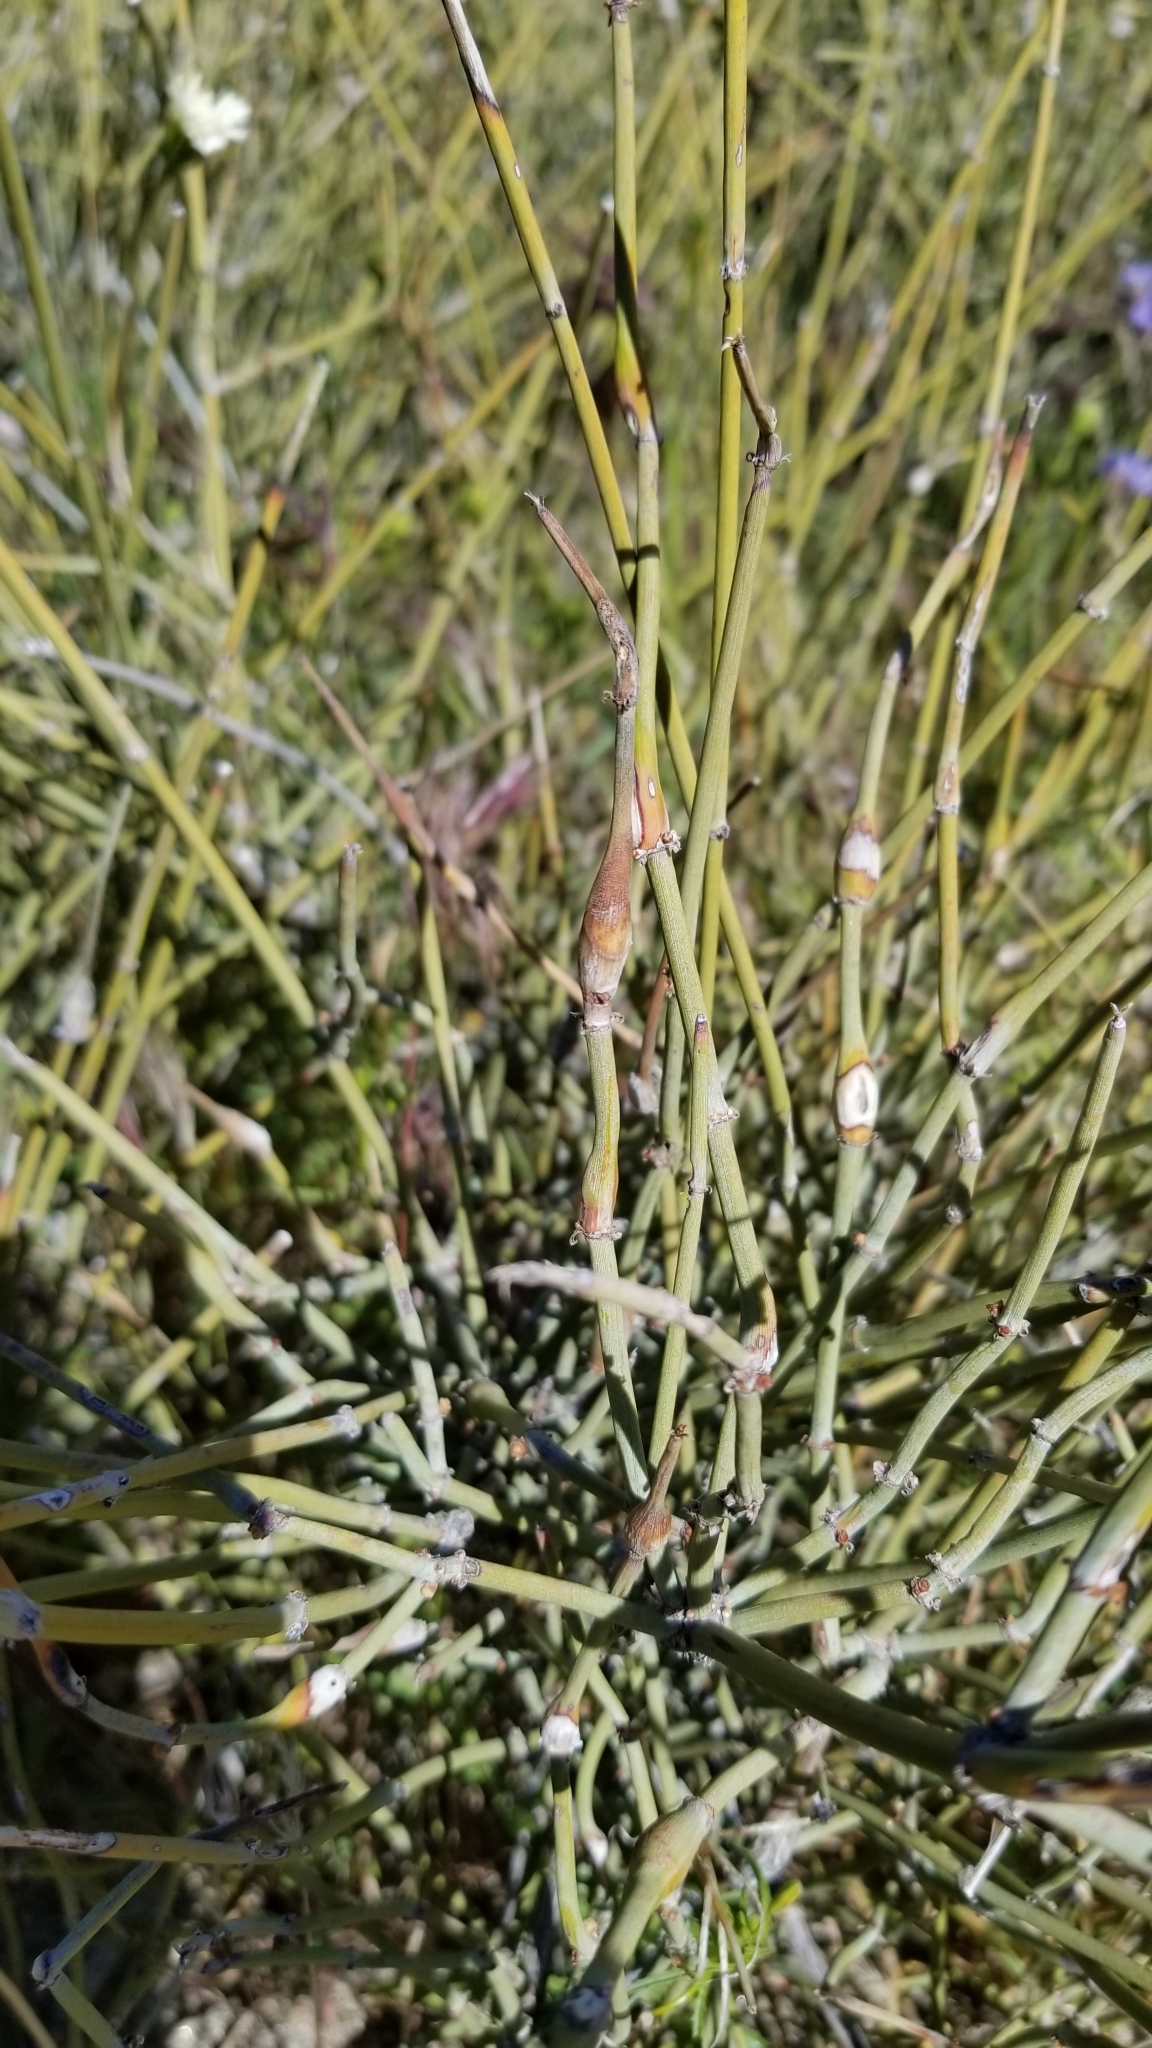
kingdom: Plantae
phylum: Tracheophyta
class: Gnetopsida
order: Ephedrales
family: Ephedraceae
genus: Ephedra
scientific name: Ephedra californica
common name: California ephedra
